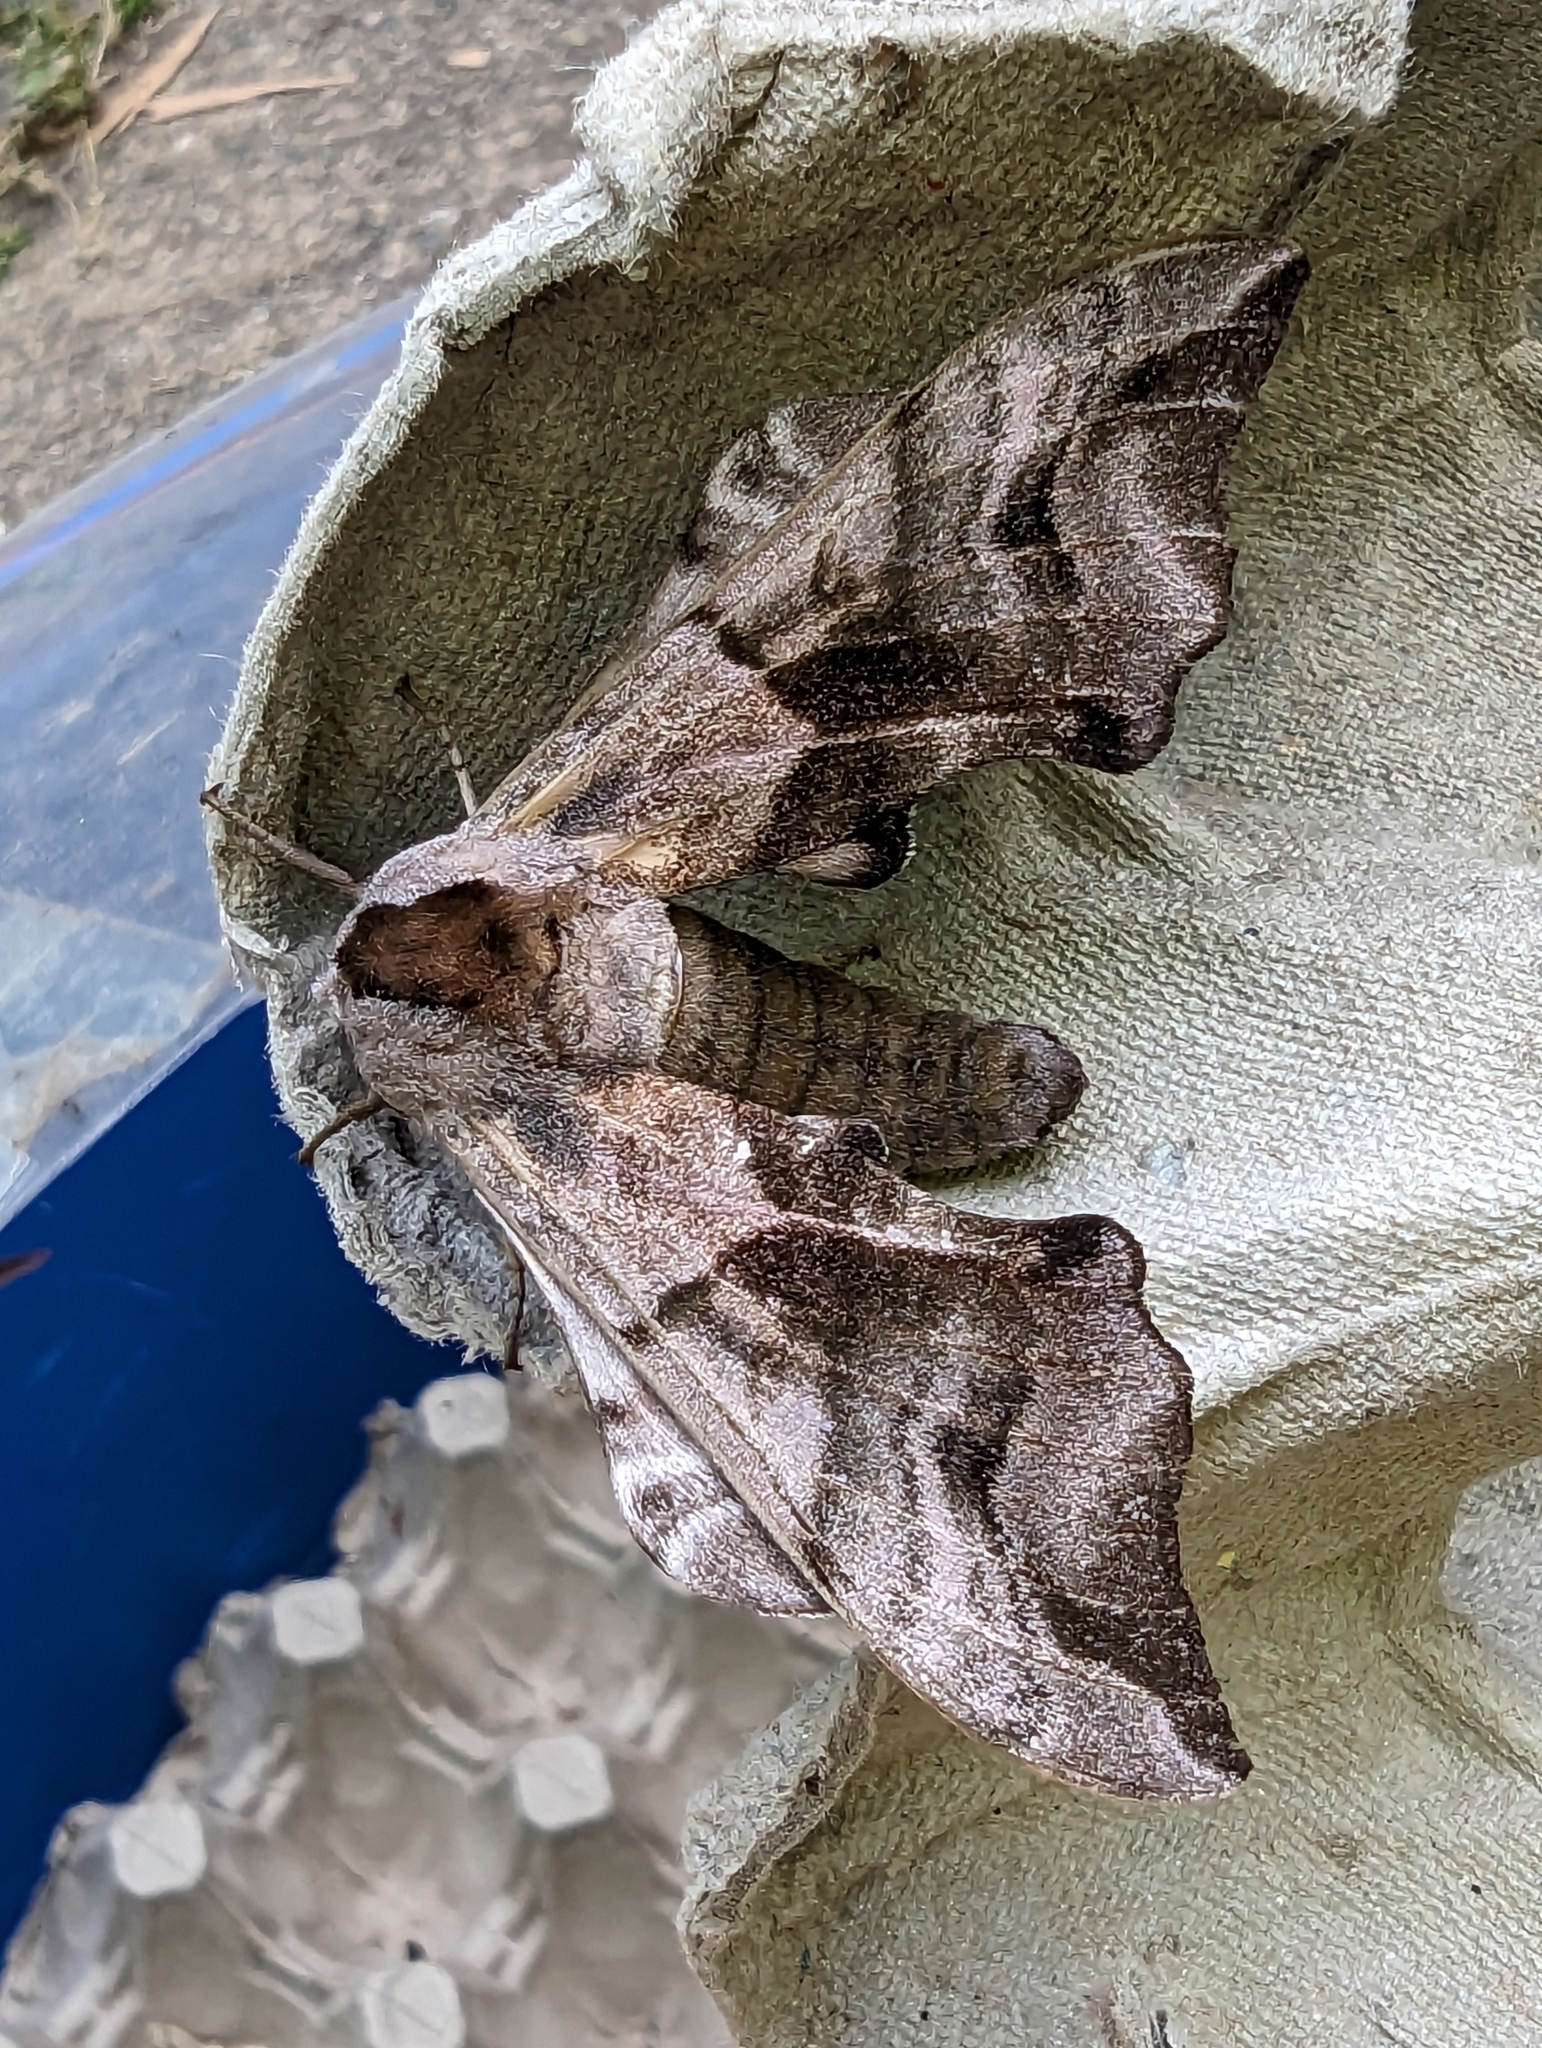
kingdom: Animalia
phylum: Arthropoda
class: Insecta
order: Lepidoptera
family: Sphingidae
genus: Smerinthus
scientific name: Smerinthus ocellata
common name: Eyed hawk-moth
